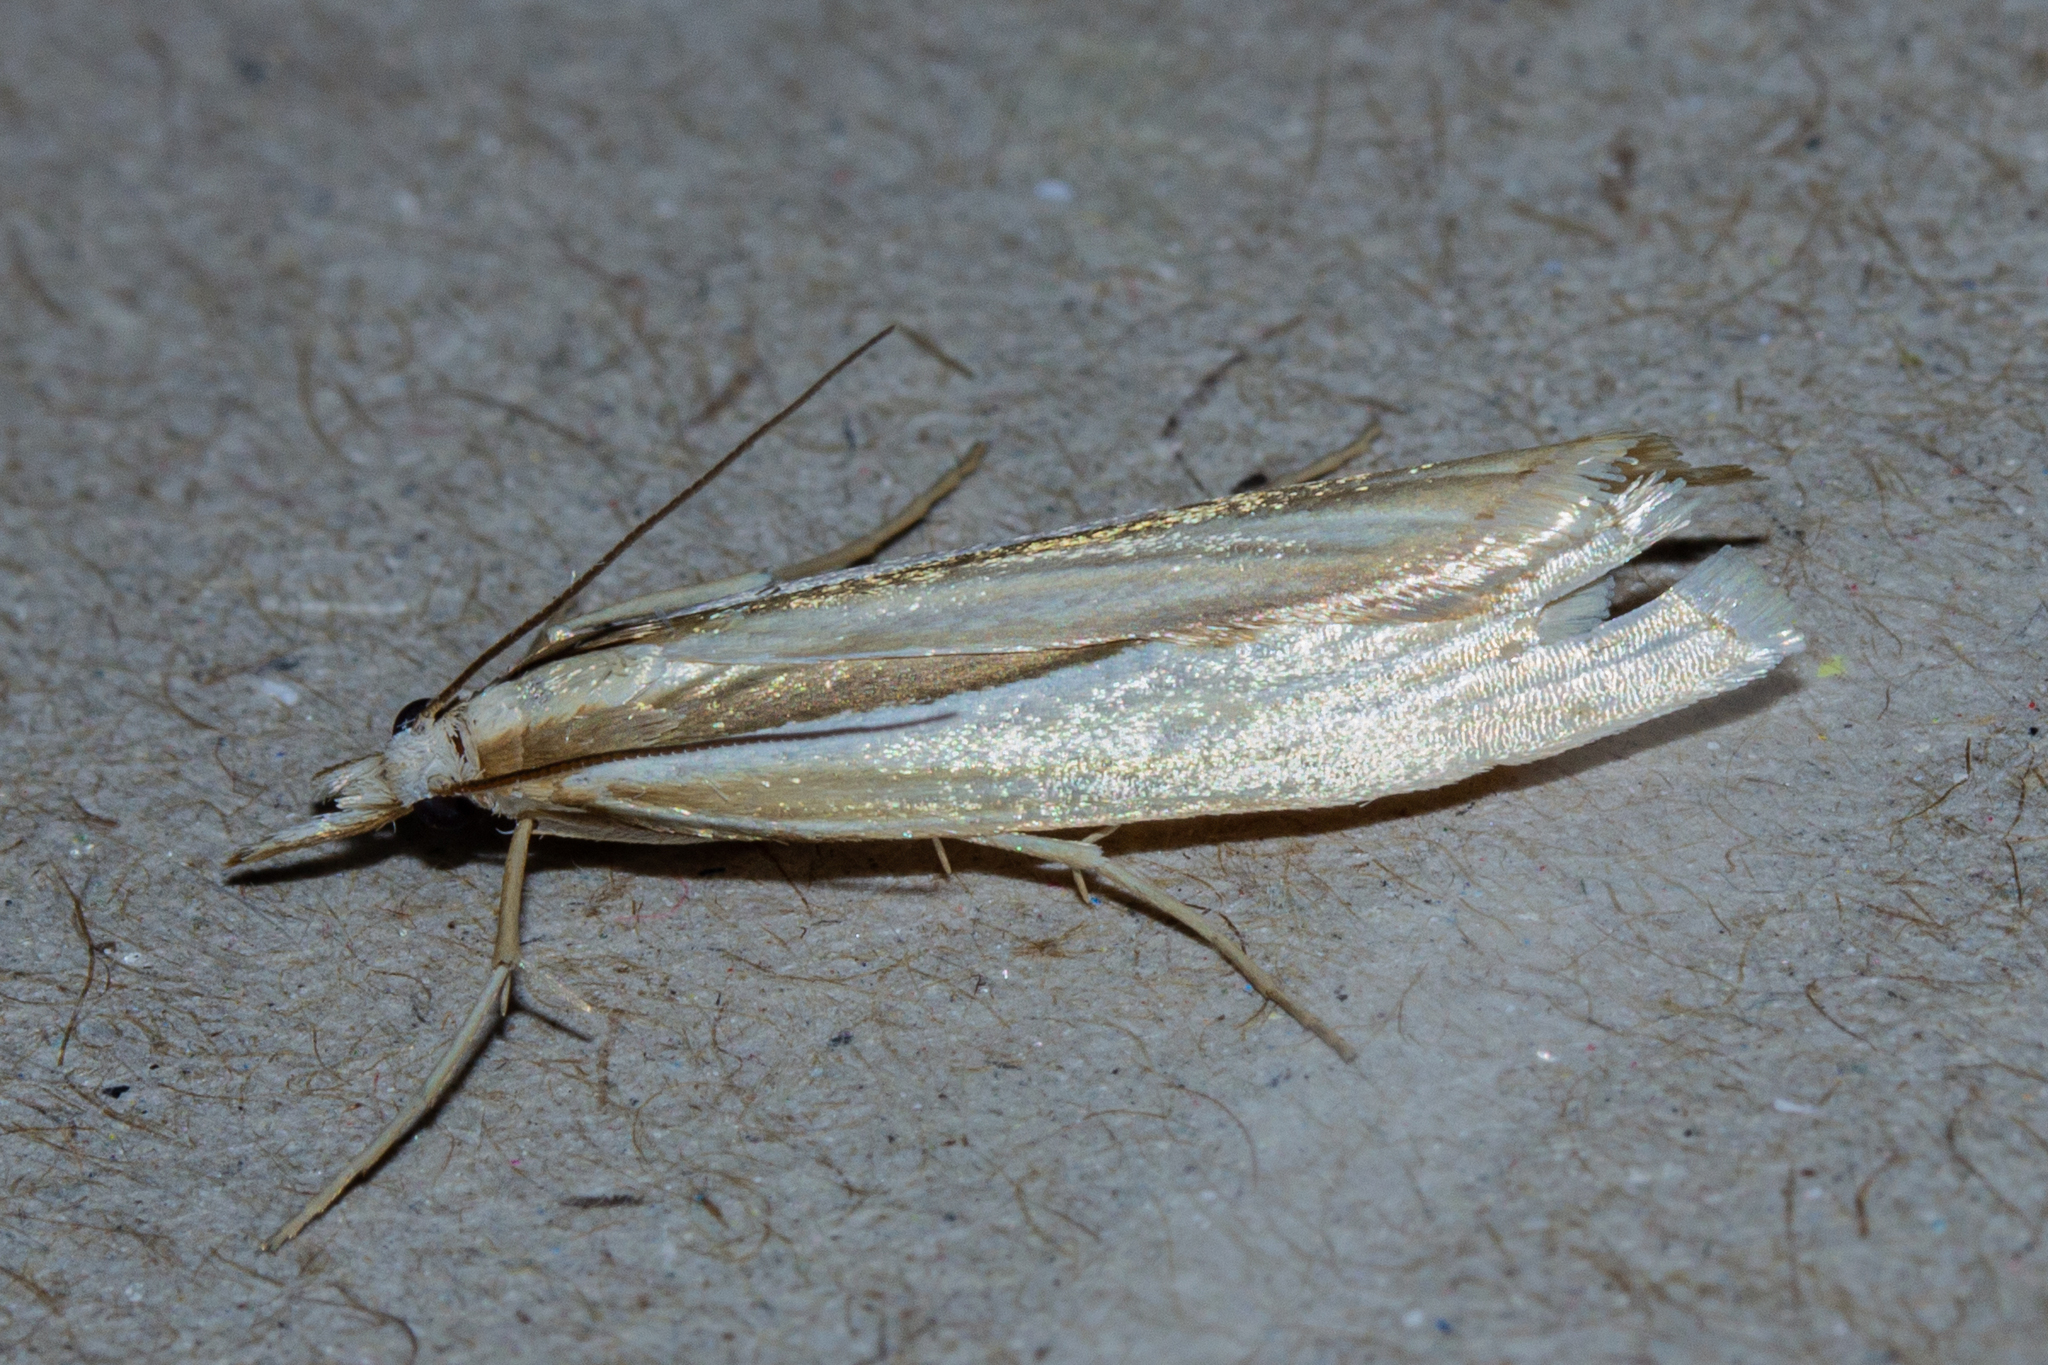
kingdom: Animalia
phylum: Arthropoda
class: Insecta
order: Lepidoptera
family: Crambidae
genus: Orocrambus
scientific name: Orocrambus ramosellus
